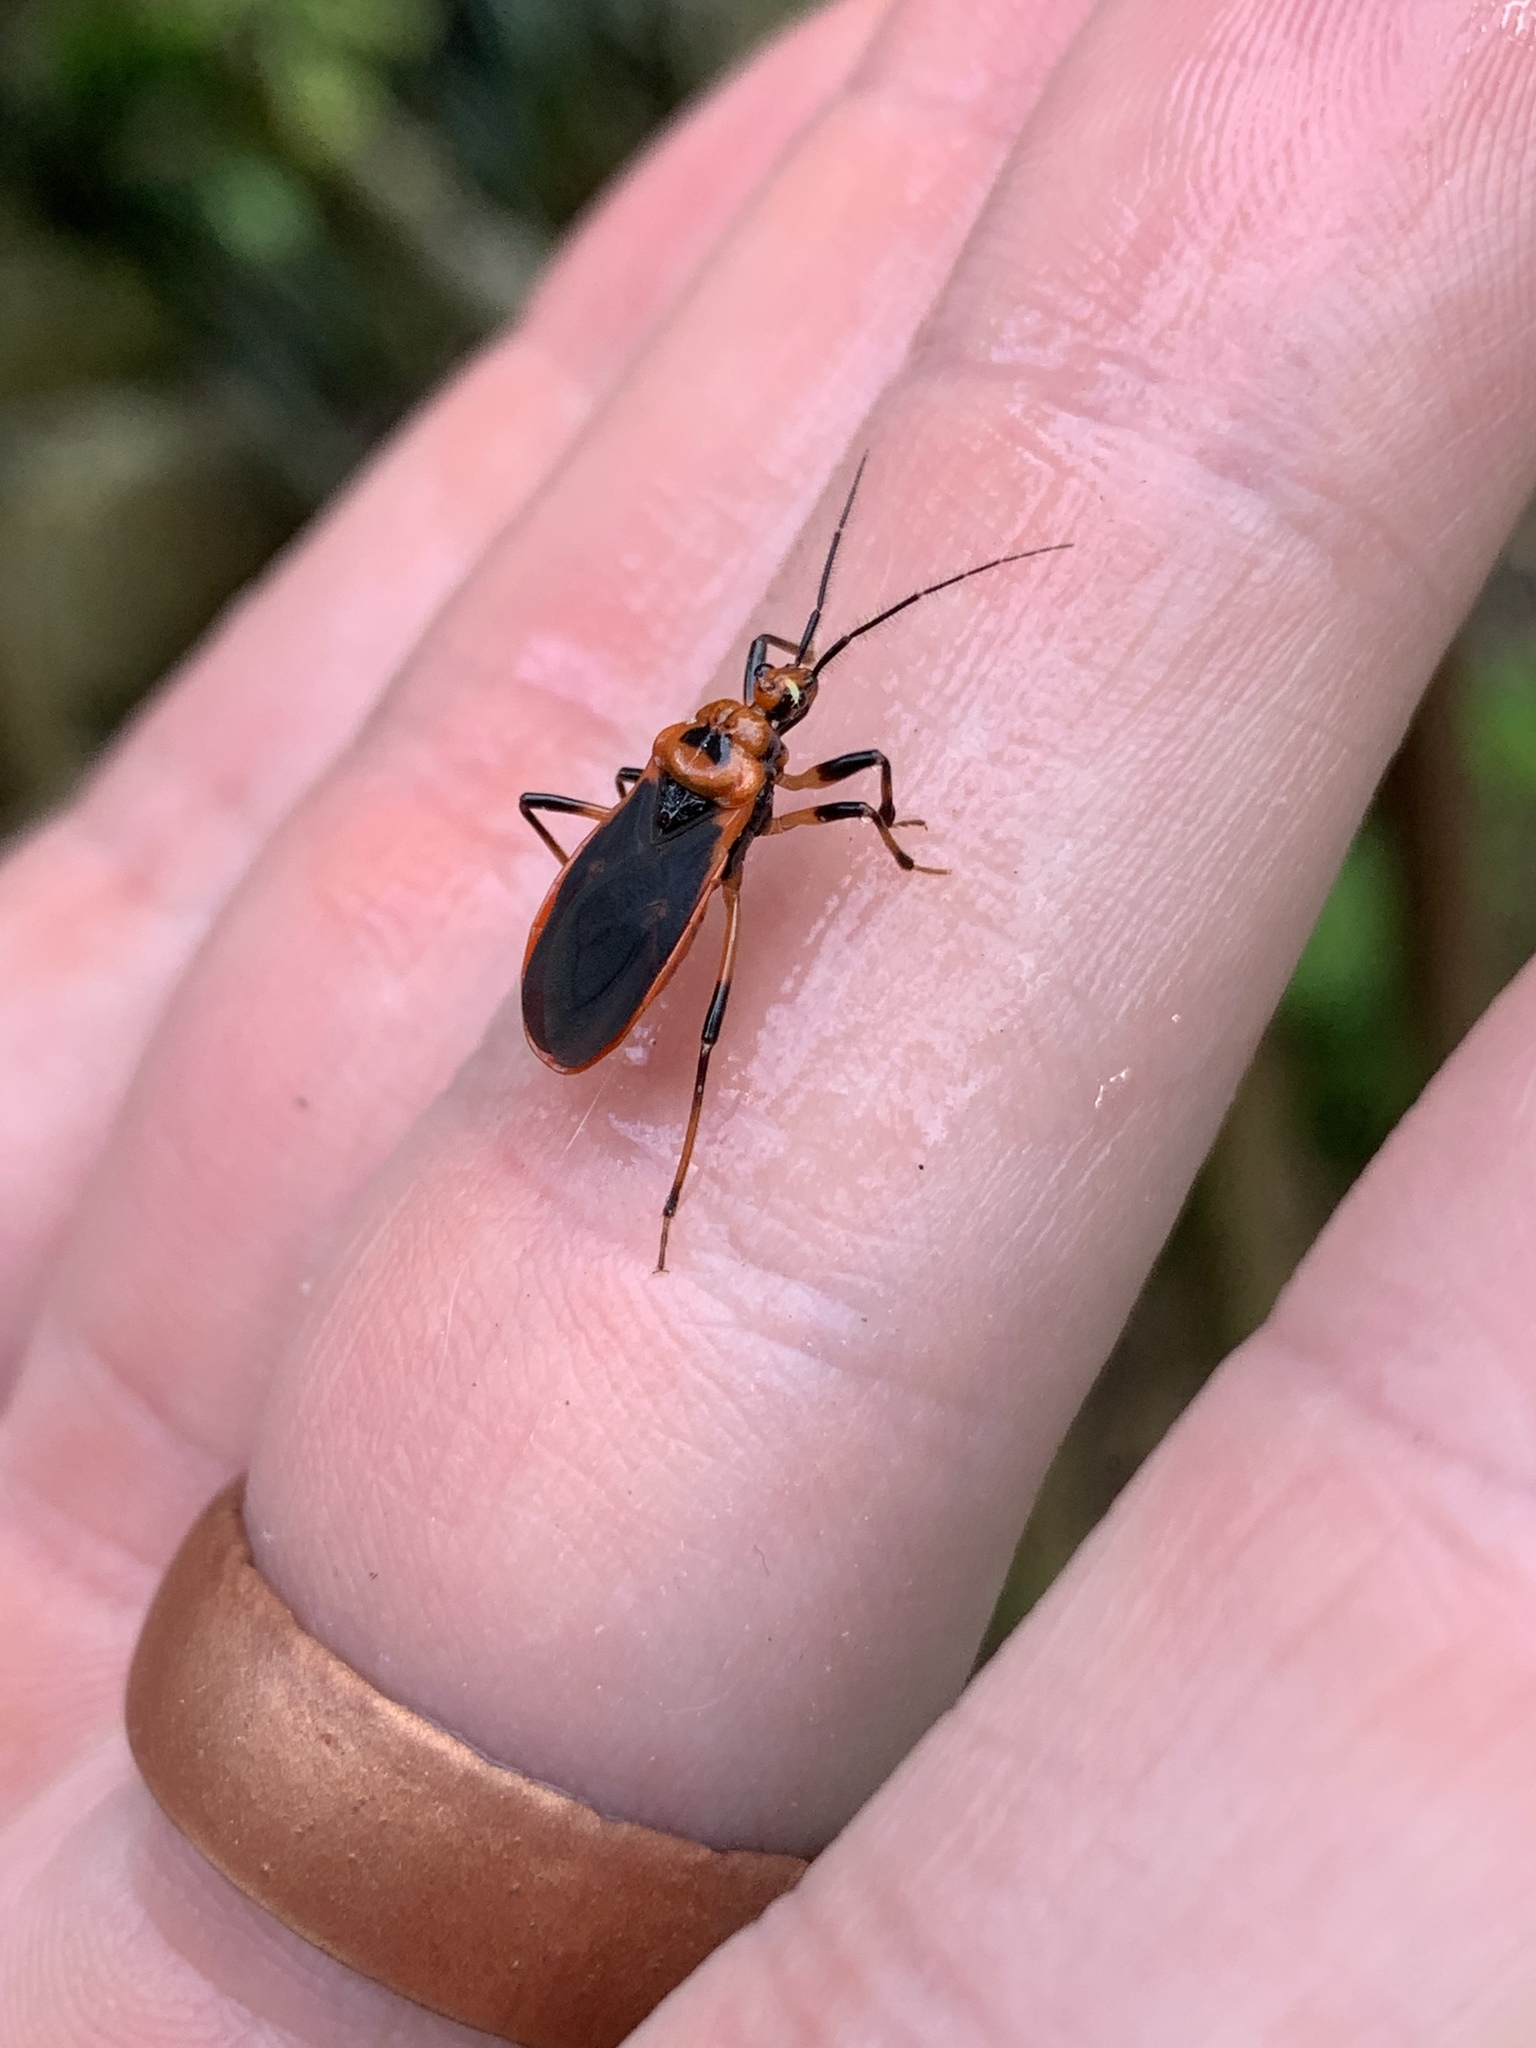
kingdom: Animalia
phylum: Arthropoda
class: Insecta
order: Hemiptera
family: Reduviidae
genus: Rhiginia
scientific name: Rhiginia cruciata
